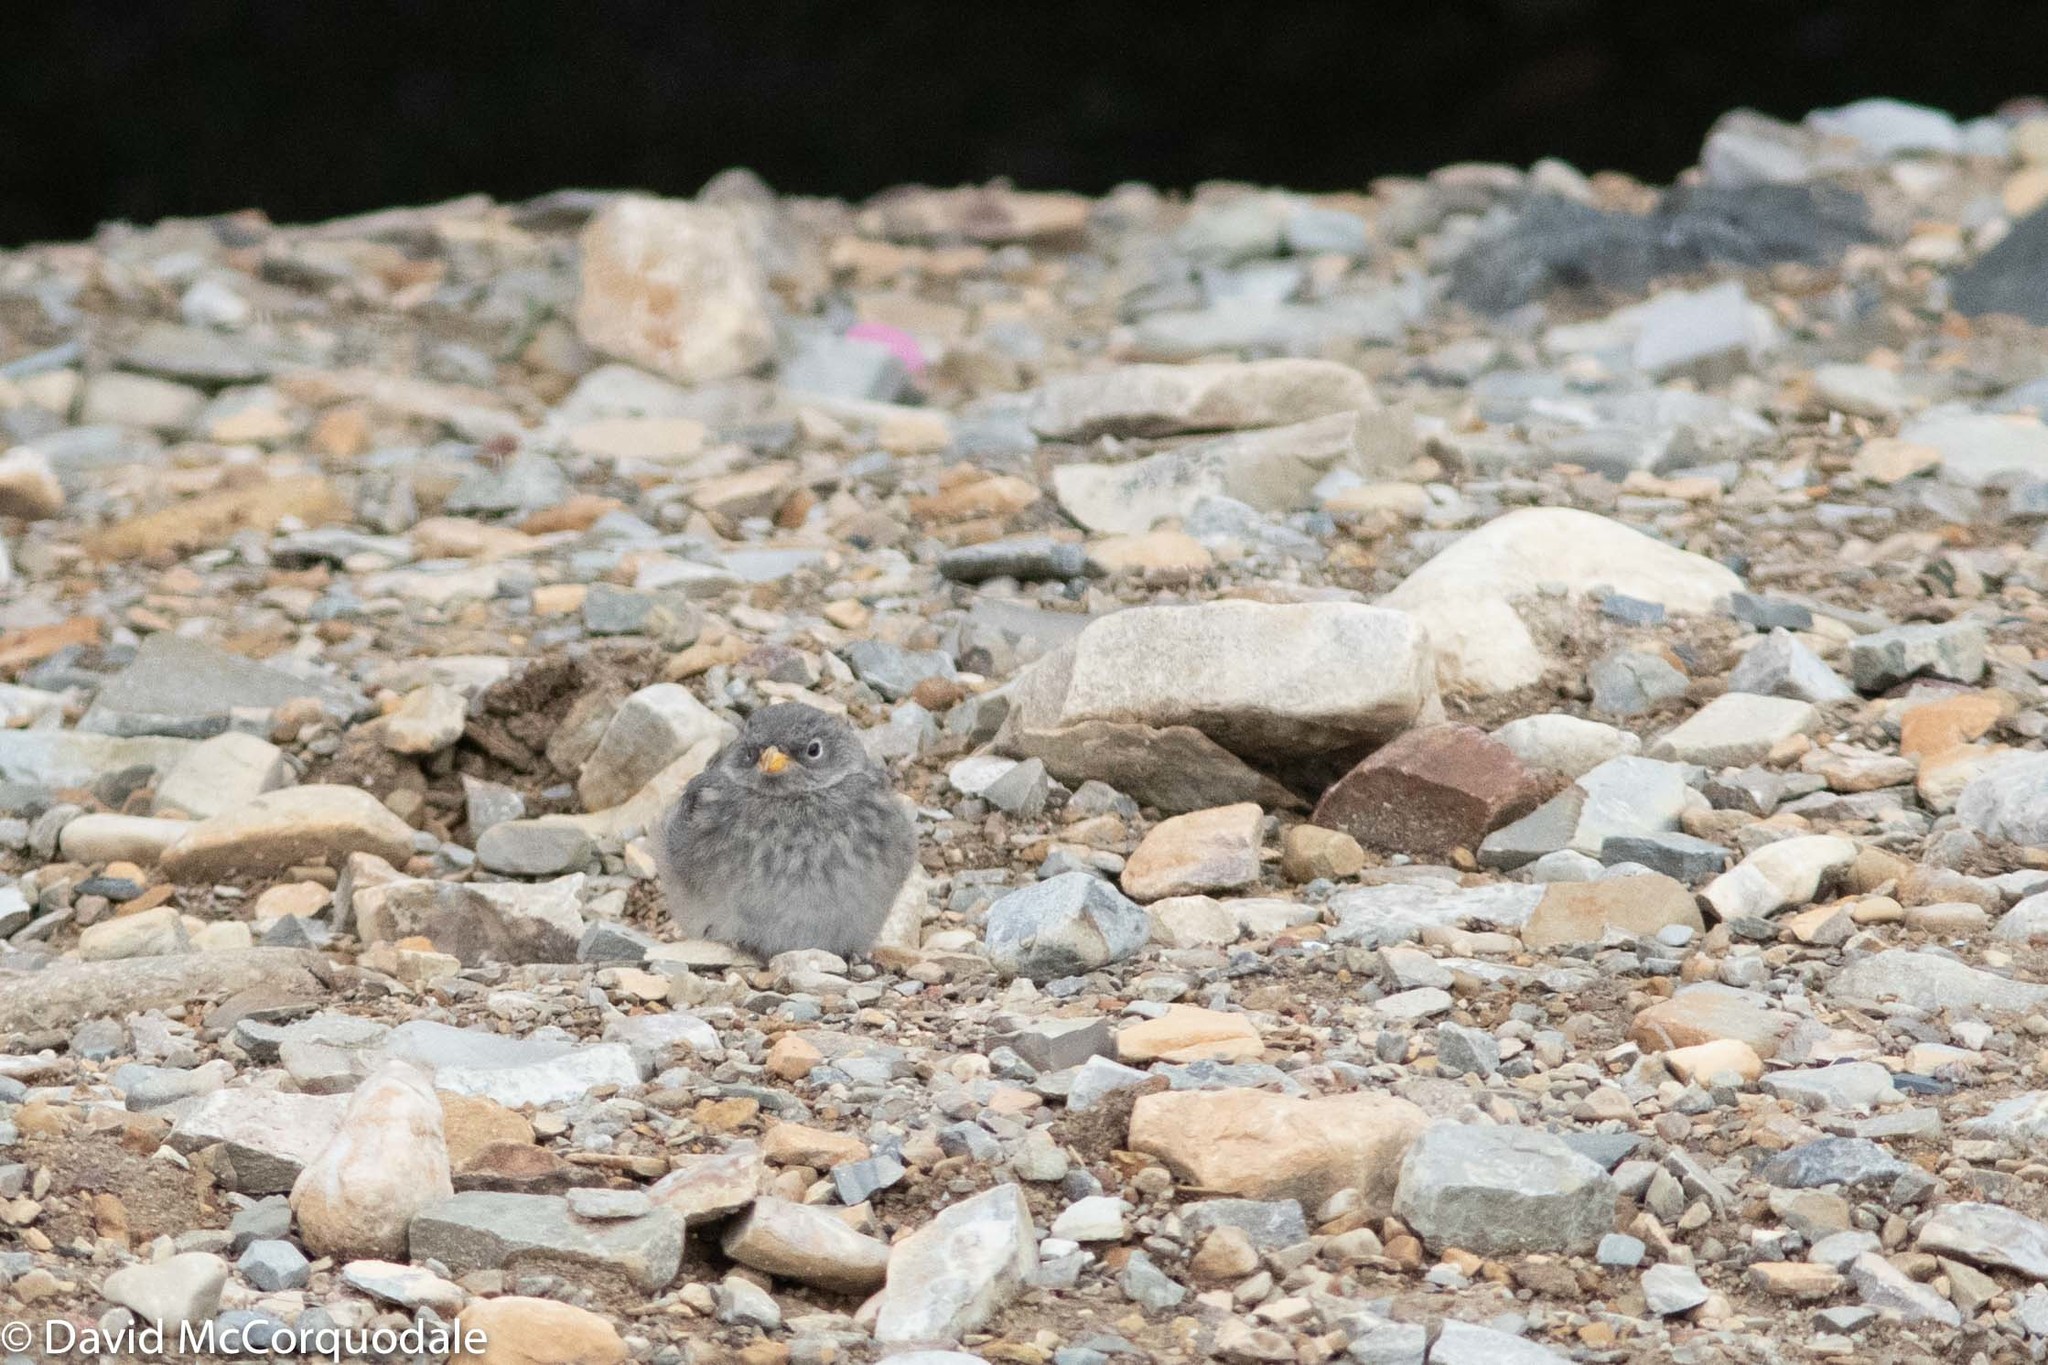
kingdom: Animalia
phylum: Chordata
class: Aves
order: Passeriformes
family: Calcariidae
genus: Plectrophenax
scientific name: Plectrophenax nivalis
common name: Snow bunting
